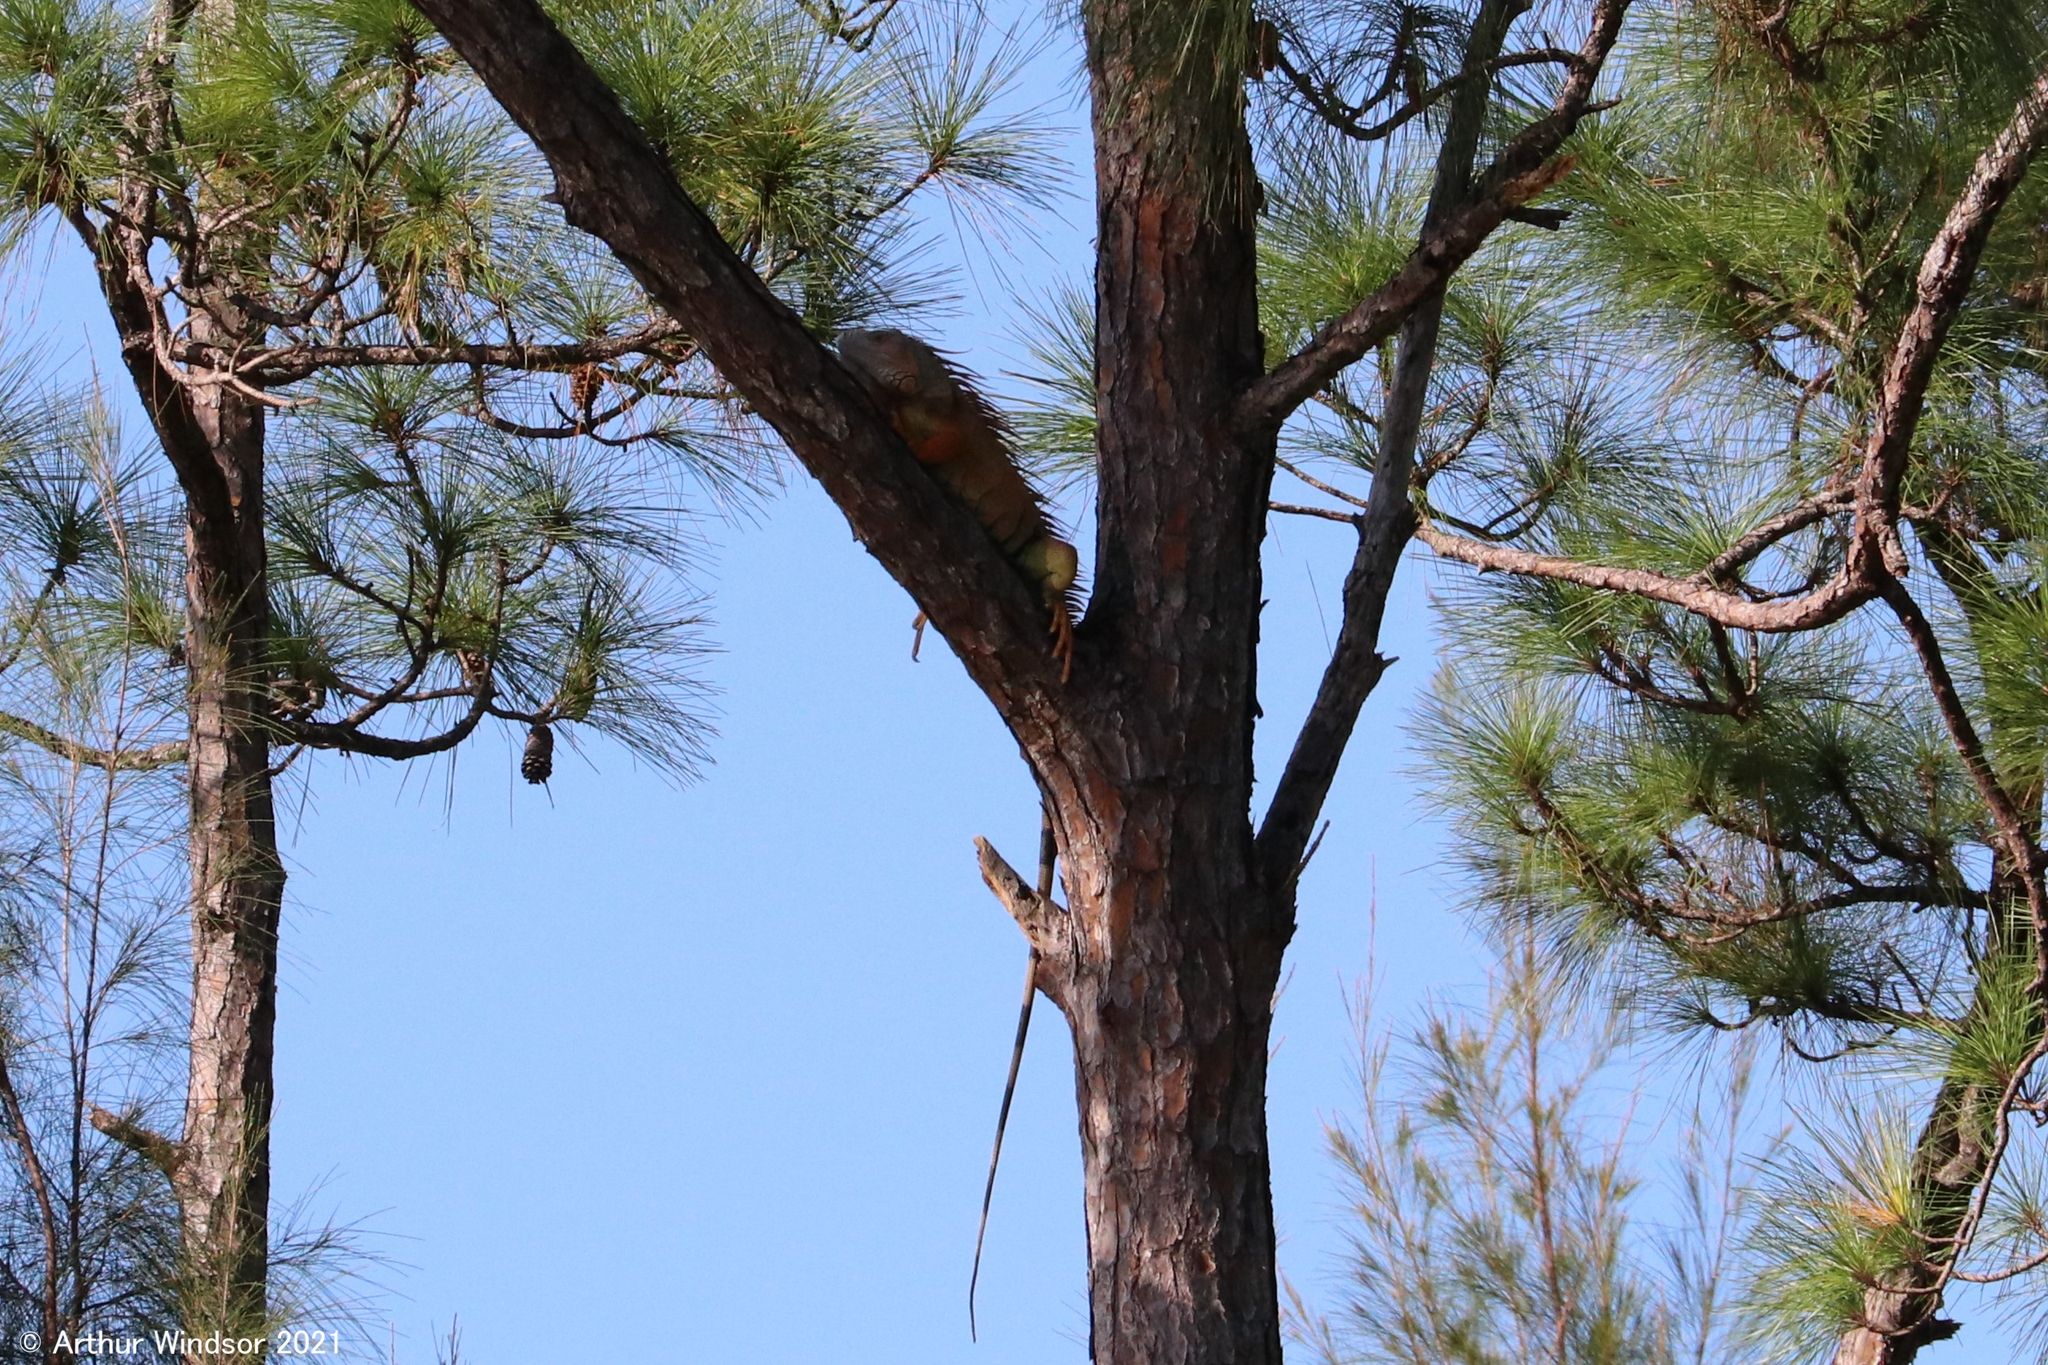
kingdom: Animalia
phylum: Chordata
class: Squamata
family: Iguanidae
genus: Iguana
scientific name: Iguana iguana
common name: Green iguana
